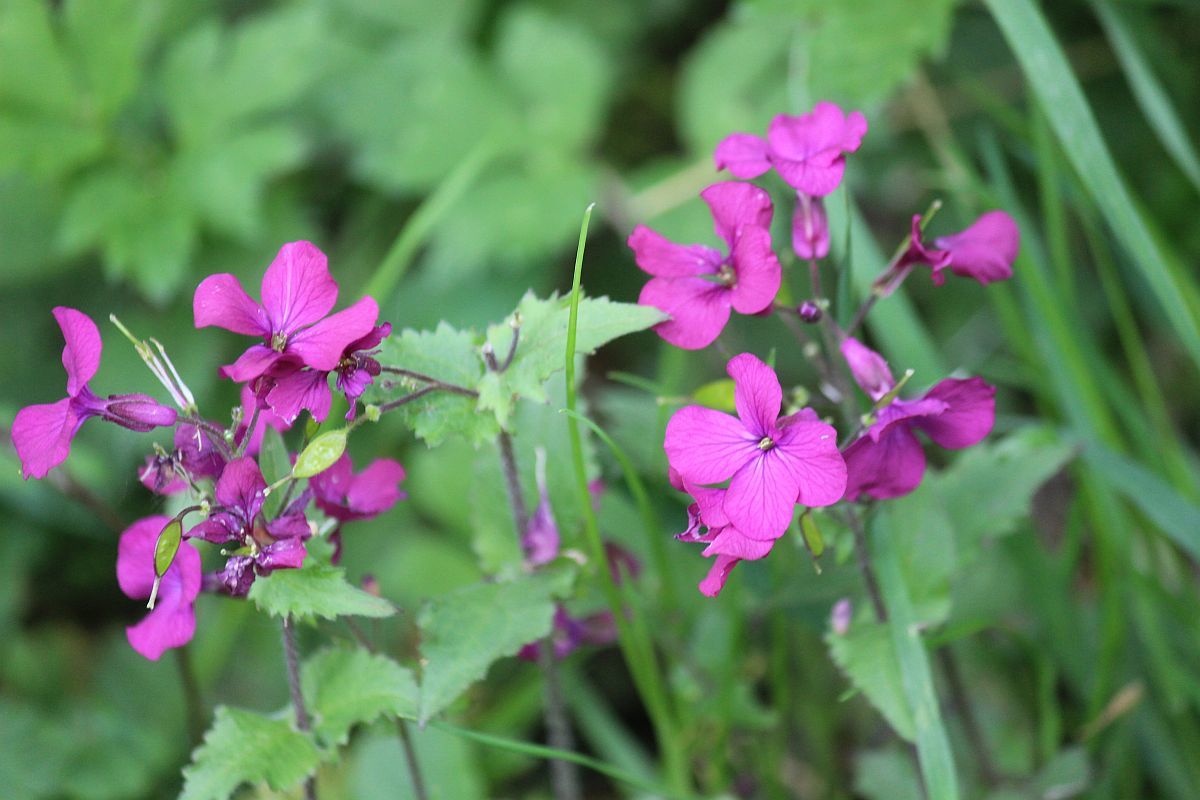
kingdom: Plantae
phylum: Tracheophyta
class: Magnoliopsida
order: Brassicales
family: Brassicaceae
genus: Lunaria
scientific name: Lunaria annua
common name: Honesty
